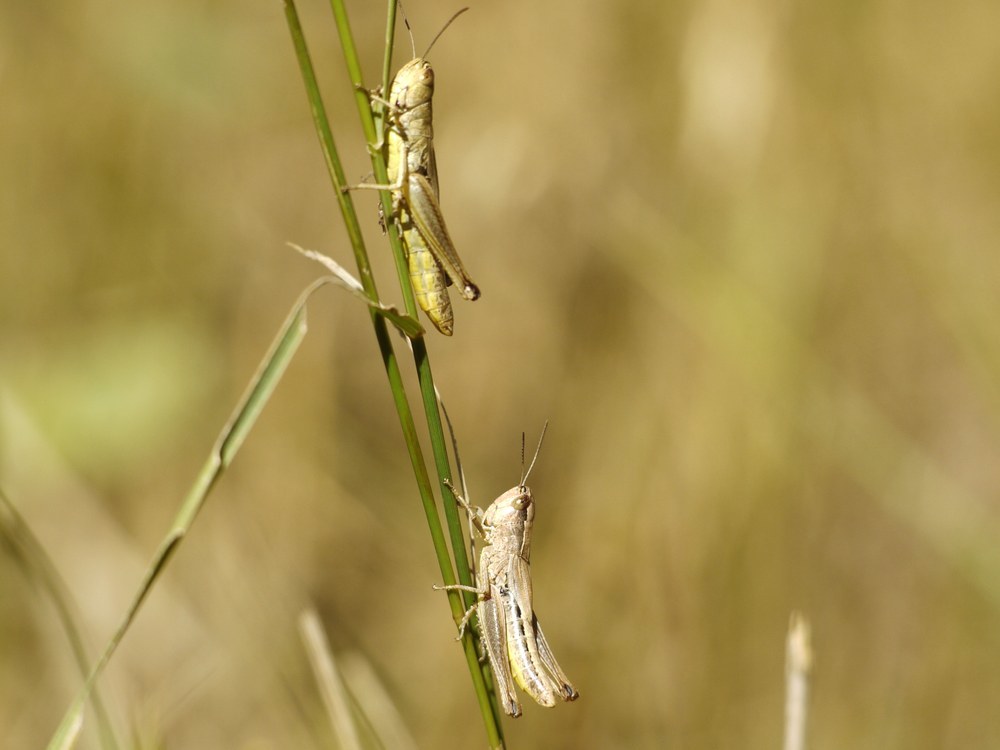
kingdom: Animalia
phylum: Arthropoda
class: Insecta
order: Orthoptera
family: Acrididae
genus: Pseudochorthippus
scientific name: Pseudochorthippus parallelus
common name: Meadow grasshopper
